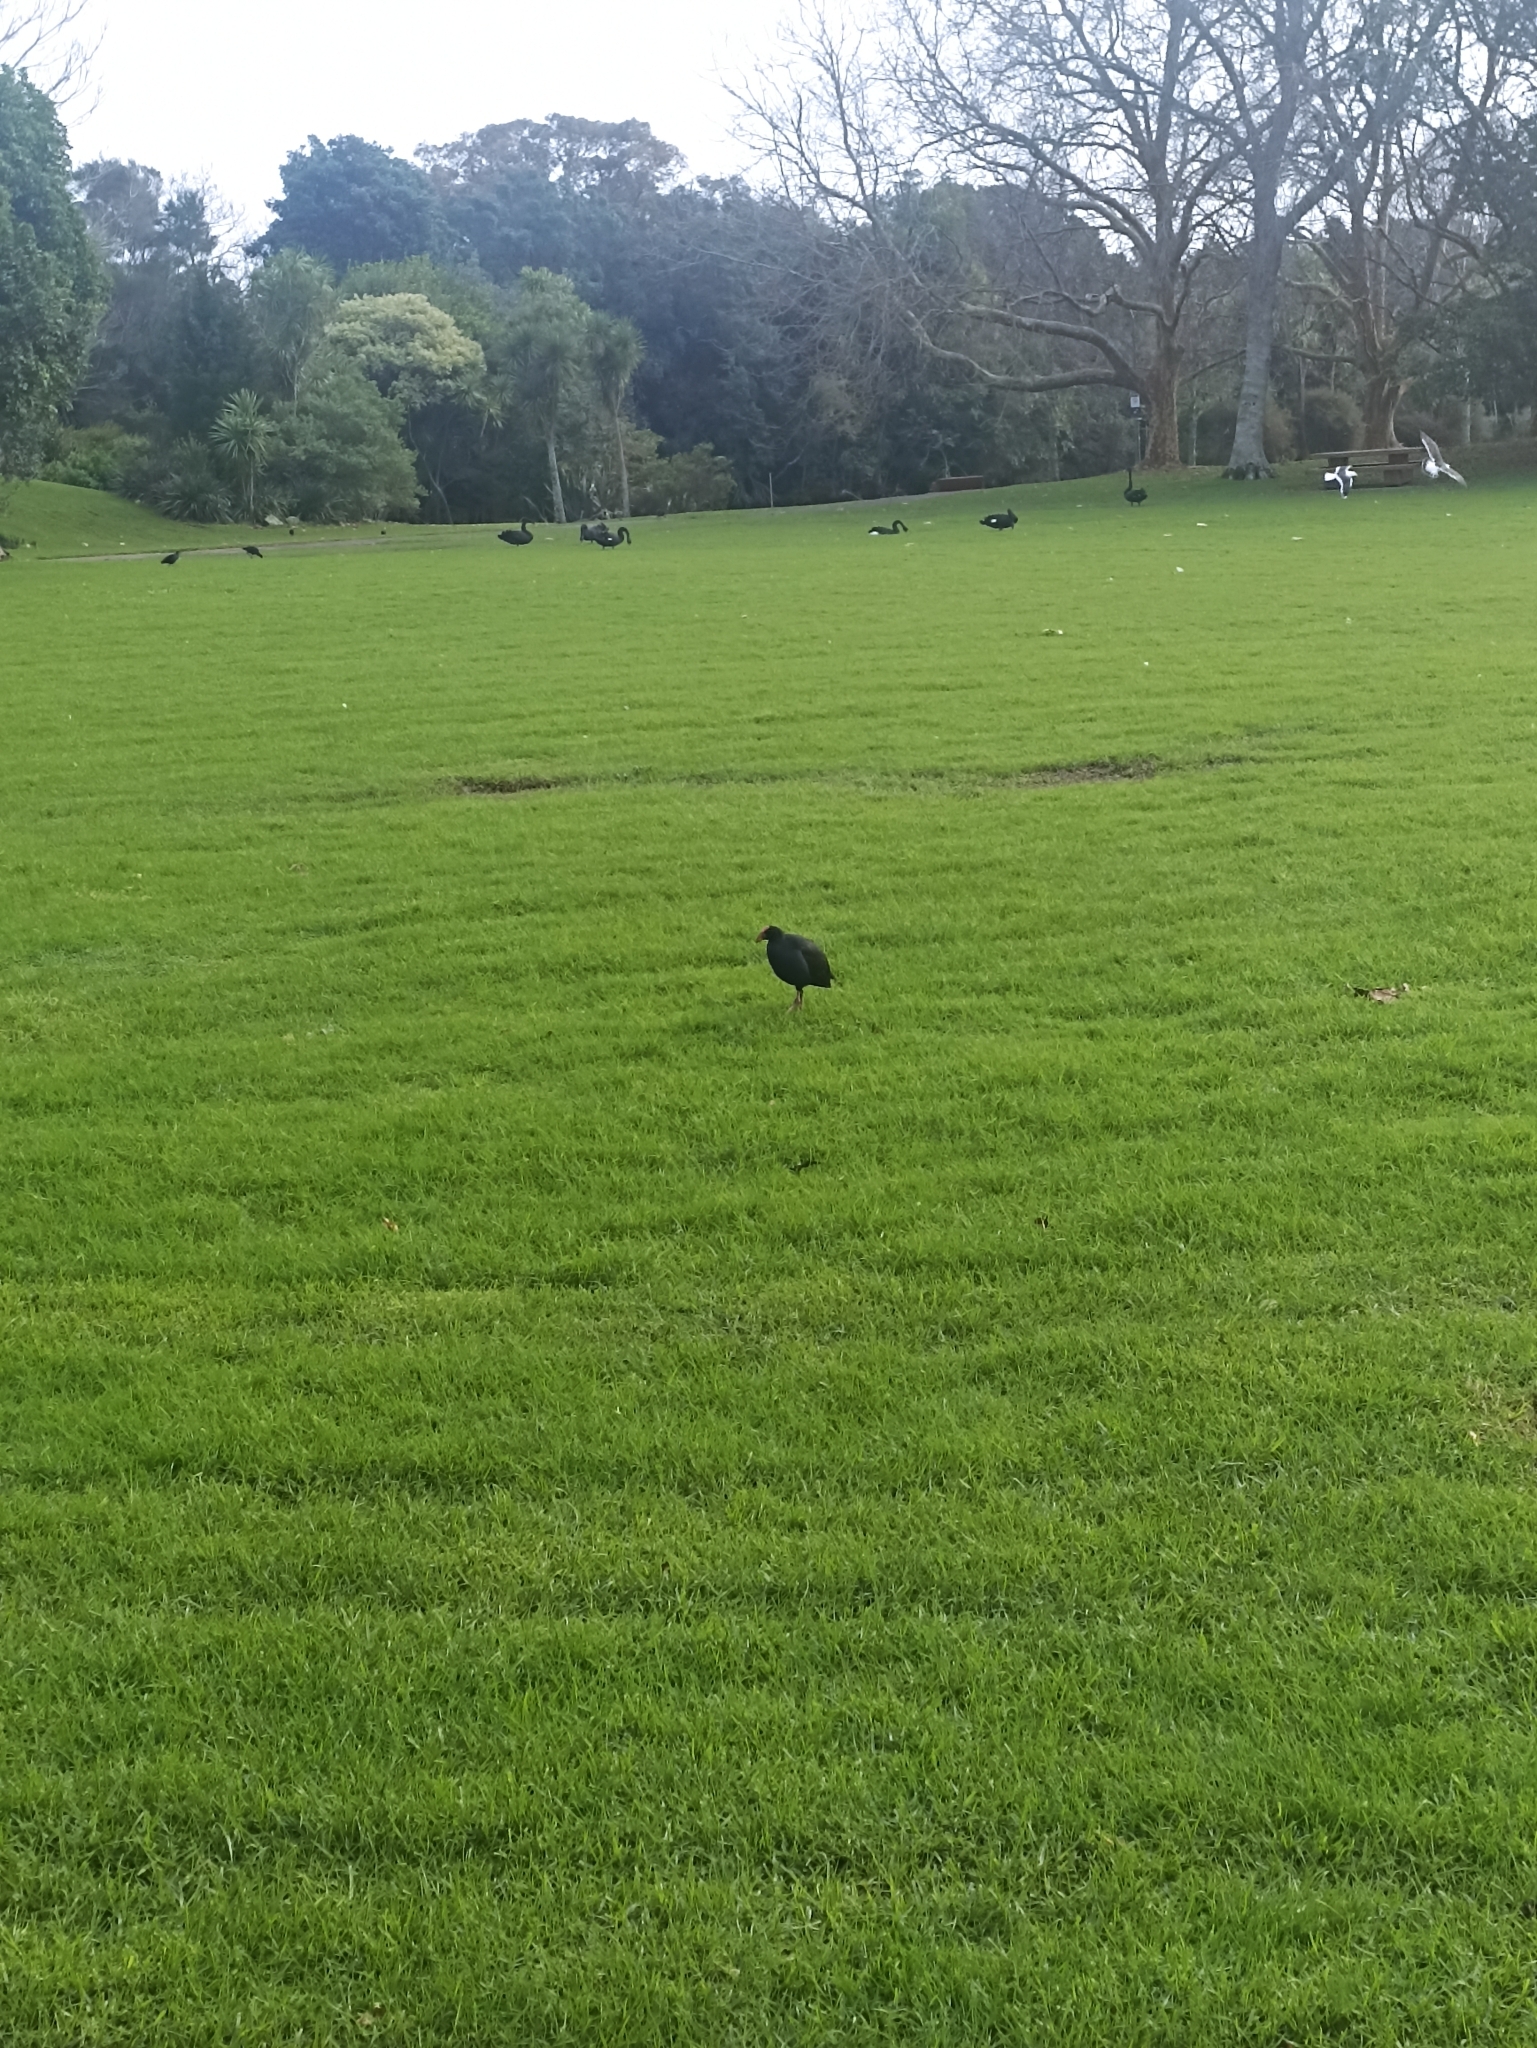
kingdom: Animalia
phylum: Chordata
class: Aves
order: Gruiformes
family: Rallidae
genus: Porphyrio
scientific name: Porphyrio melanotus
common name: Australasian swamphen
